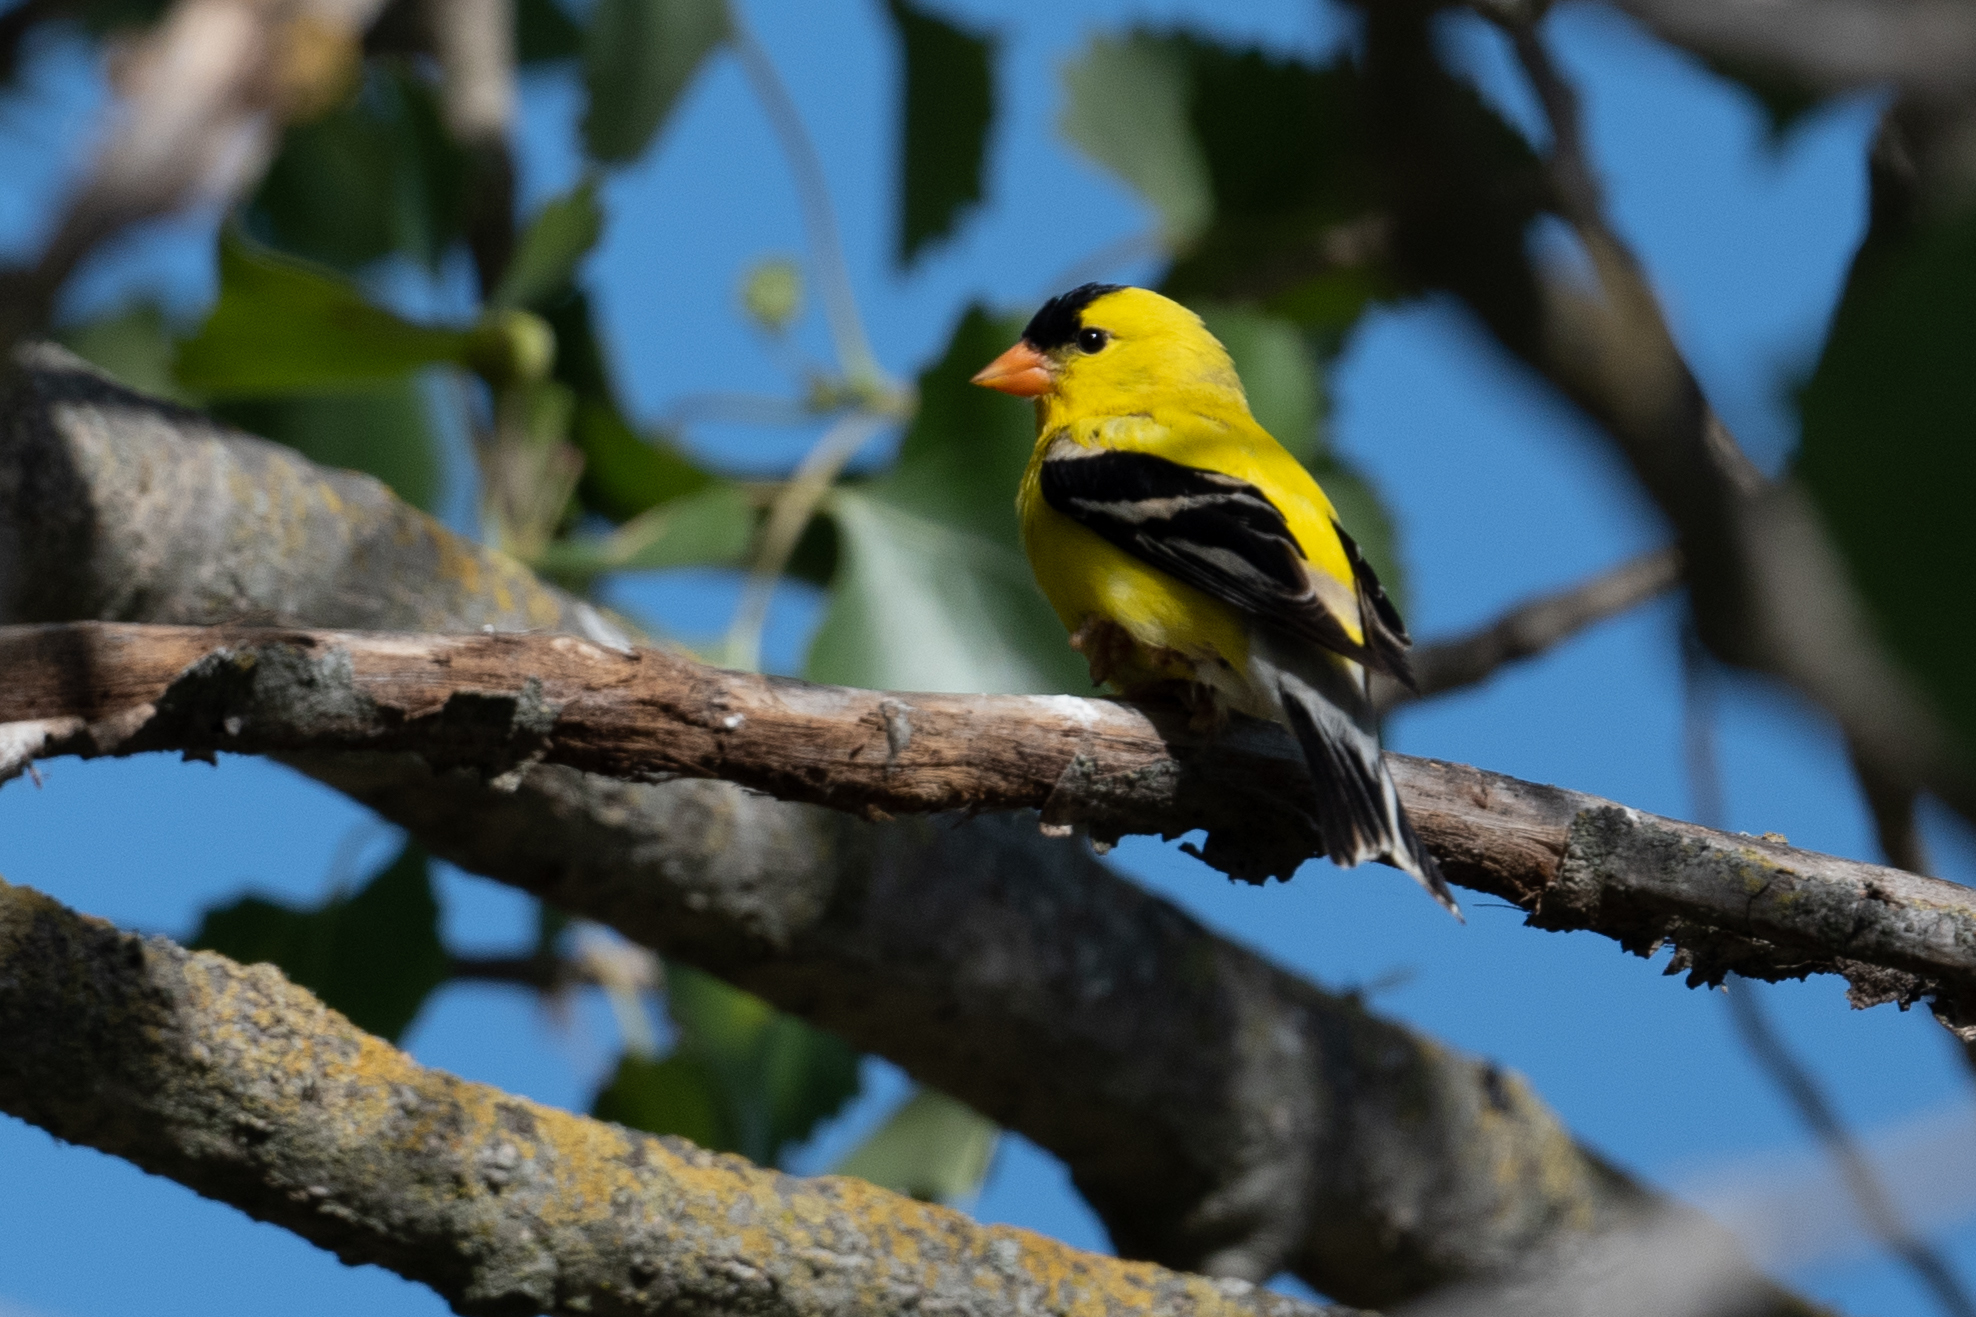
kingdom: Animalia
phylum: Chordata
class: Aves
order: Passeriformes
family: Fringillidae
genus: Spinus
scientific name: Spinus tristis
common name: American goldfinch
